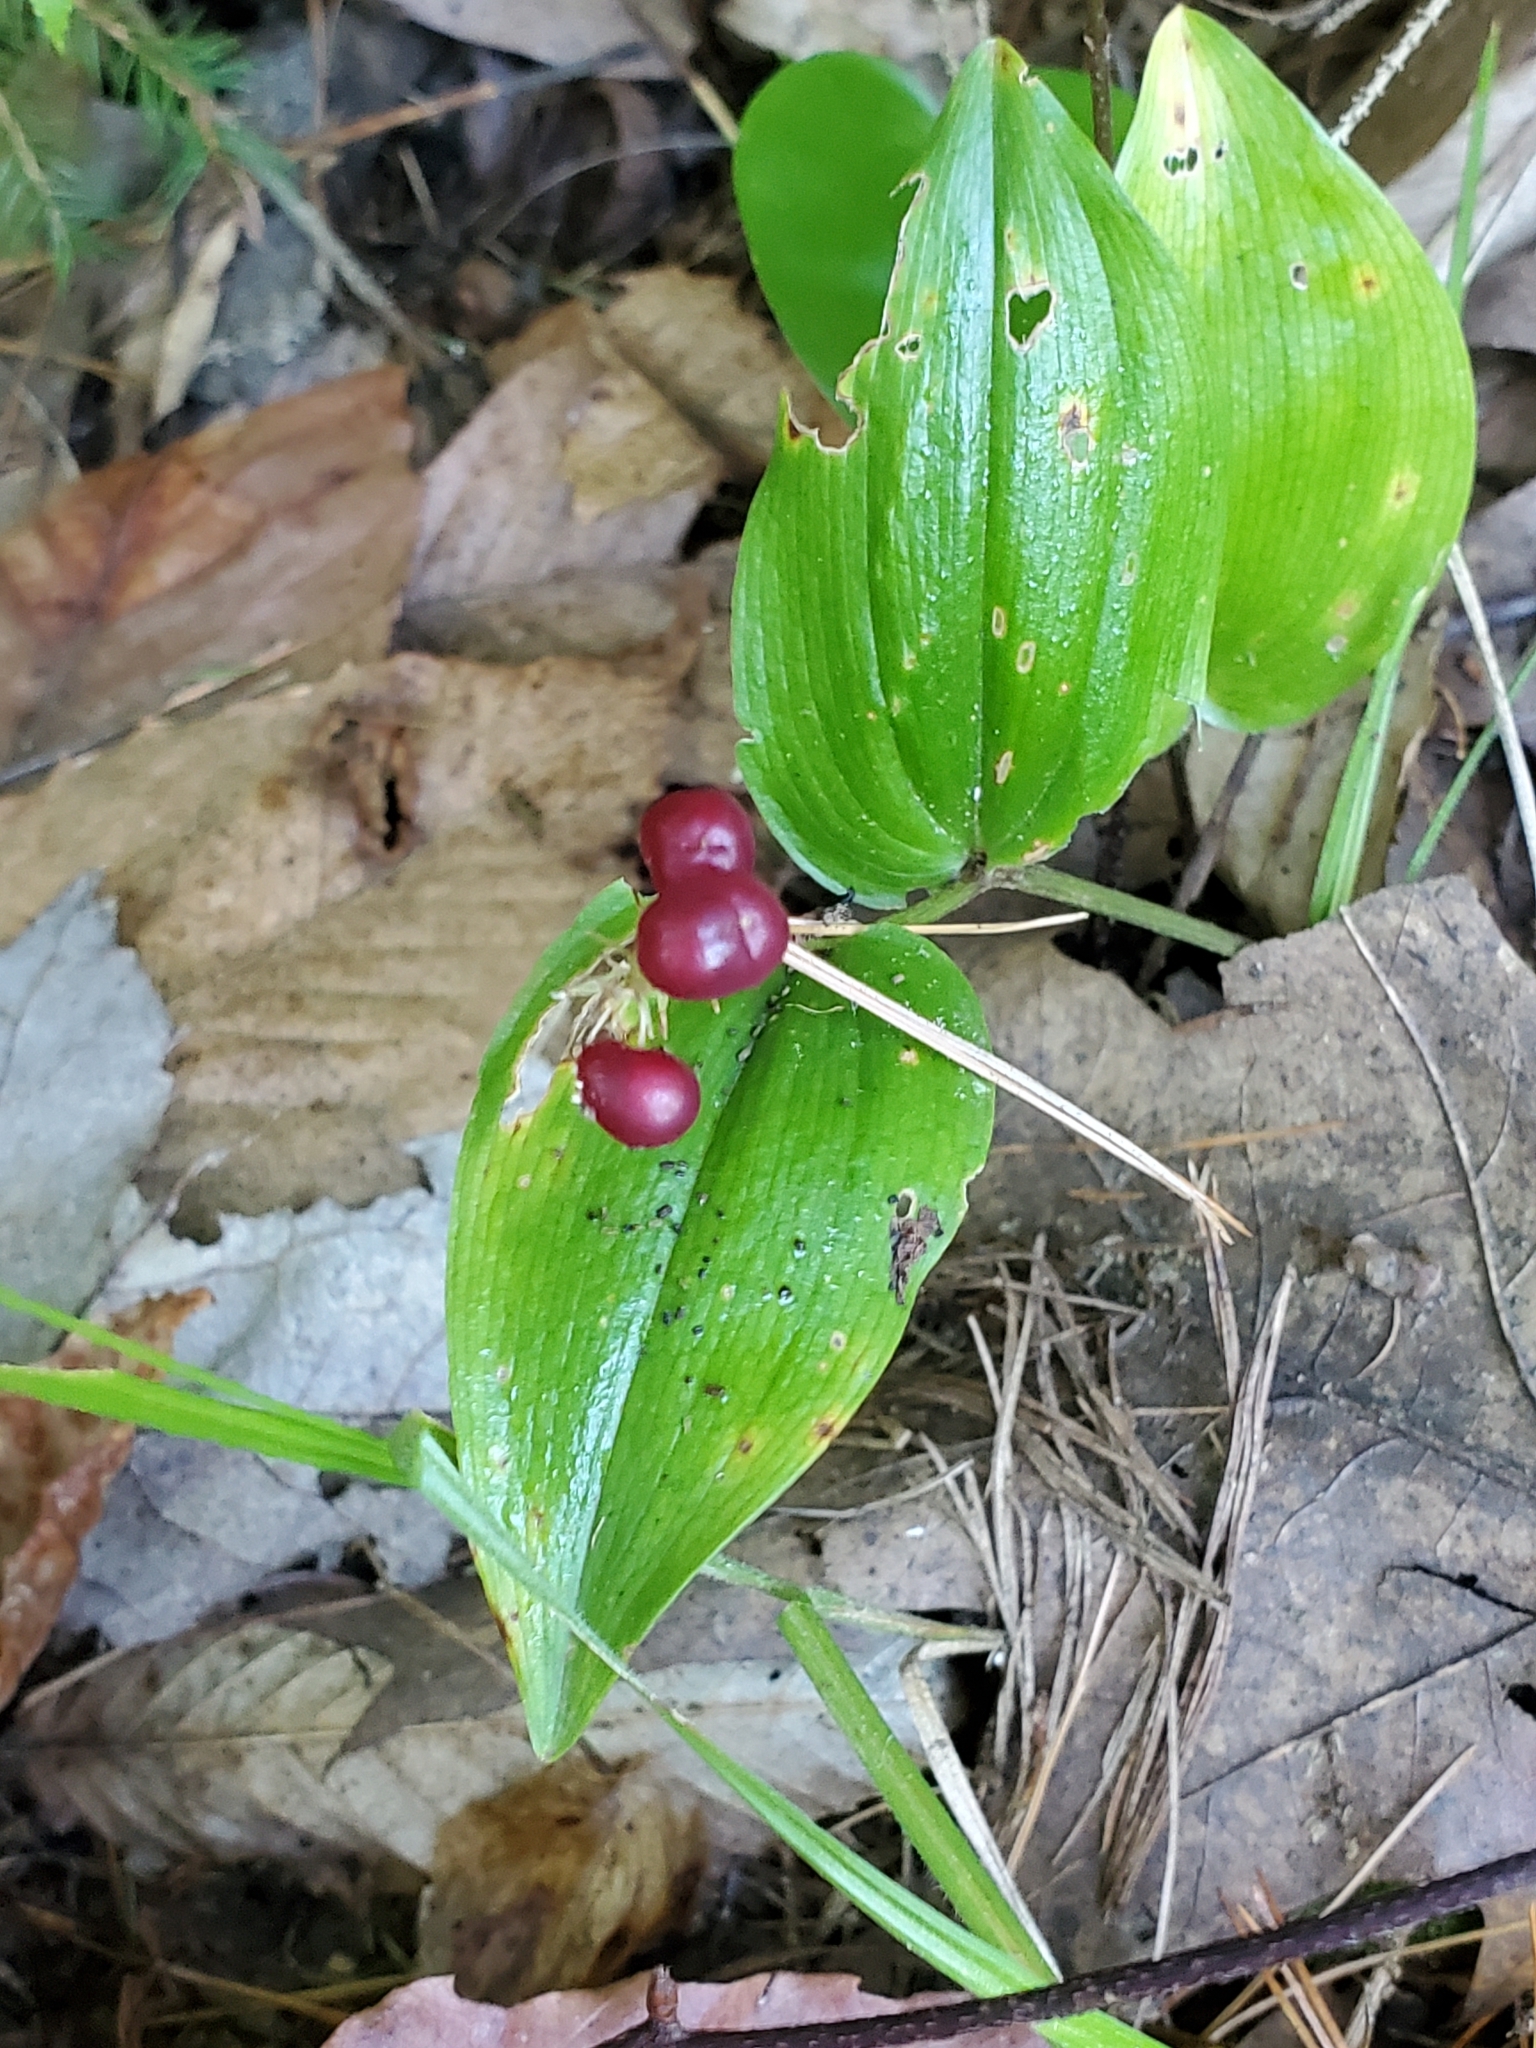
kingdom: Plantae
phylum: Tracheophyta
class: Liliopsida
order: Asparagales
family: Asparagaceae
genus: Maianthemum
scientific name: Maianthemum canadense
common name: False lily-of-the-valley
